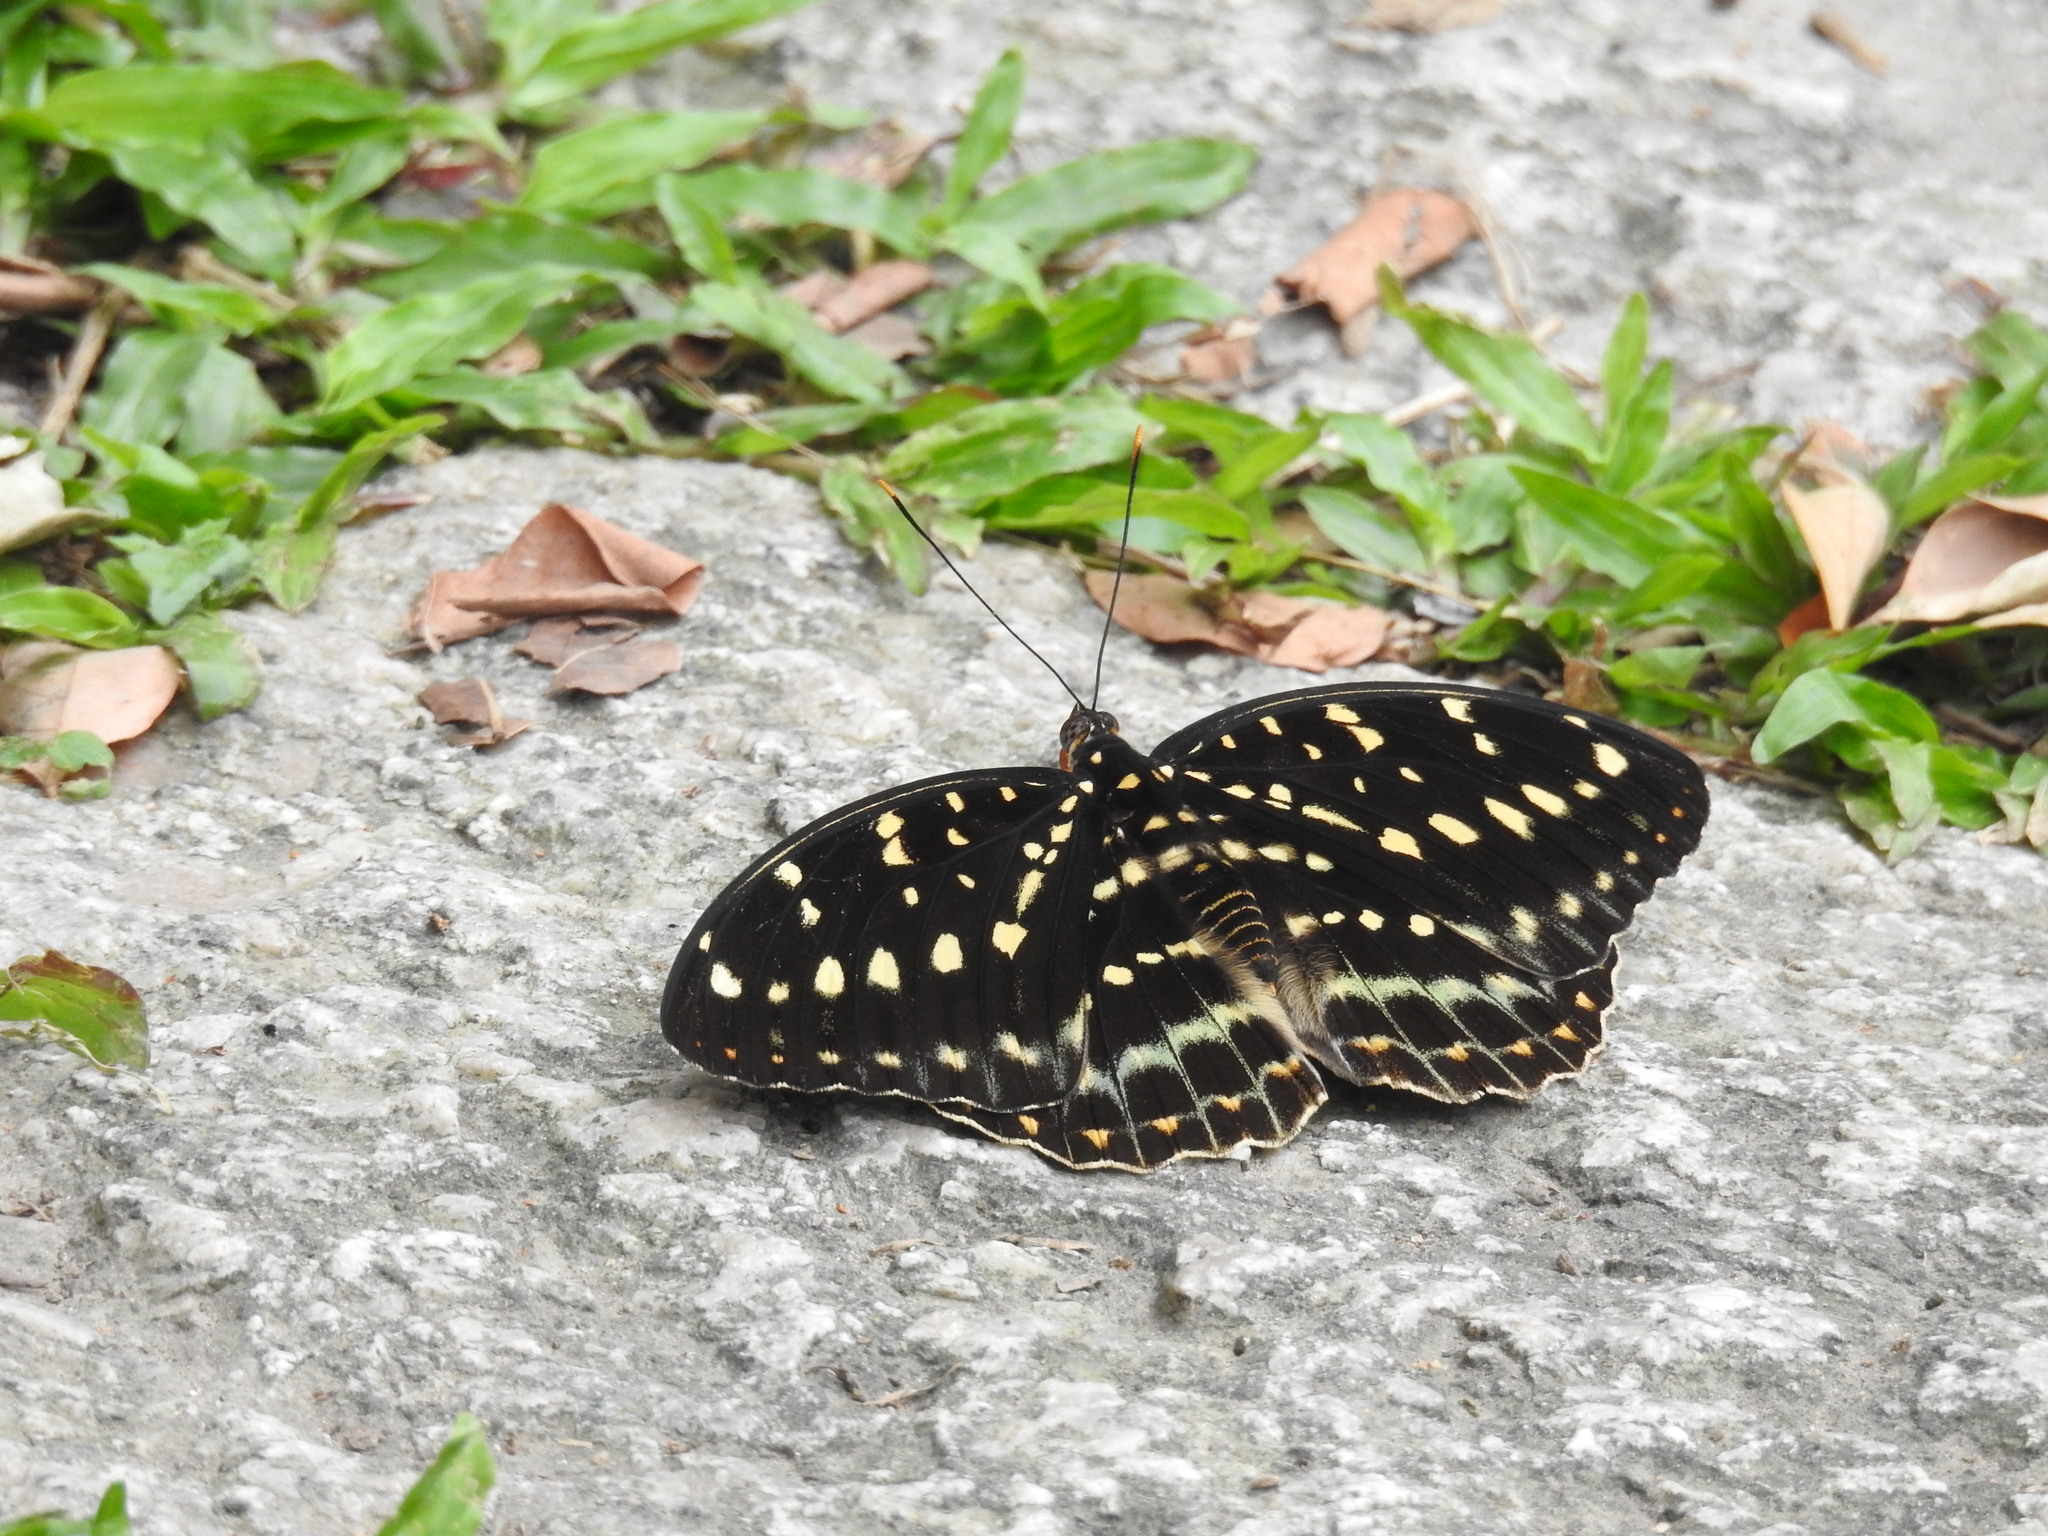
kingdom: Animalia
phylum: Arthropoda
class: Insecta
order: Lepidoptera
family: Nymphalidae
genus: Lexias
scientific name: Lexias pardalis
